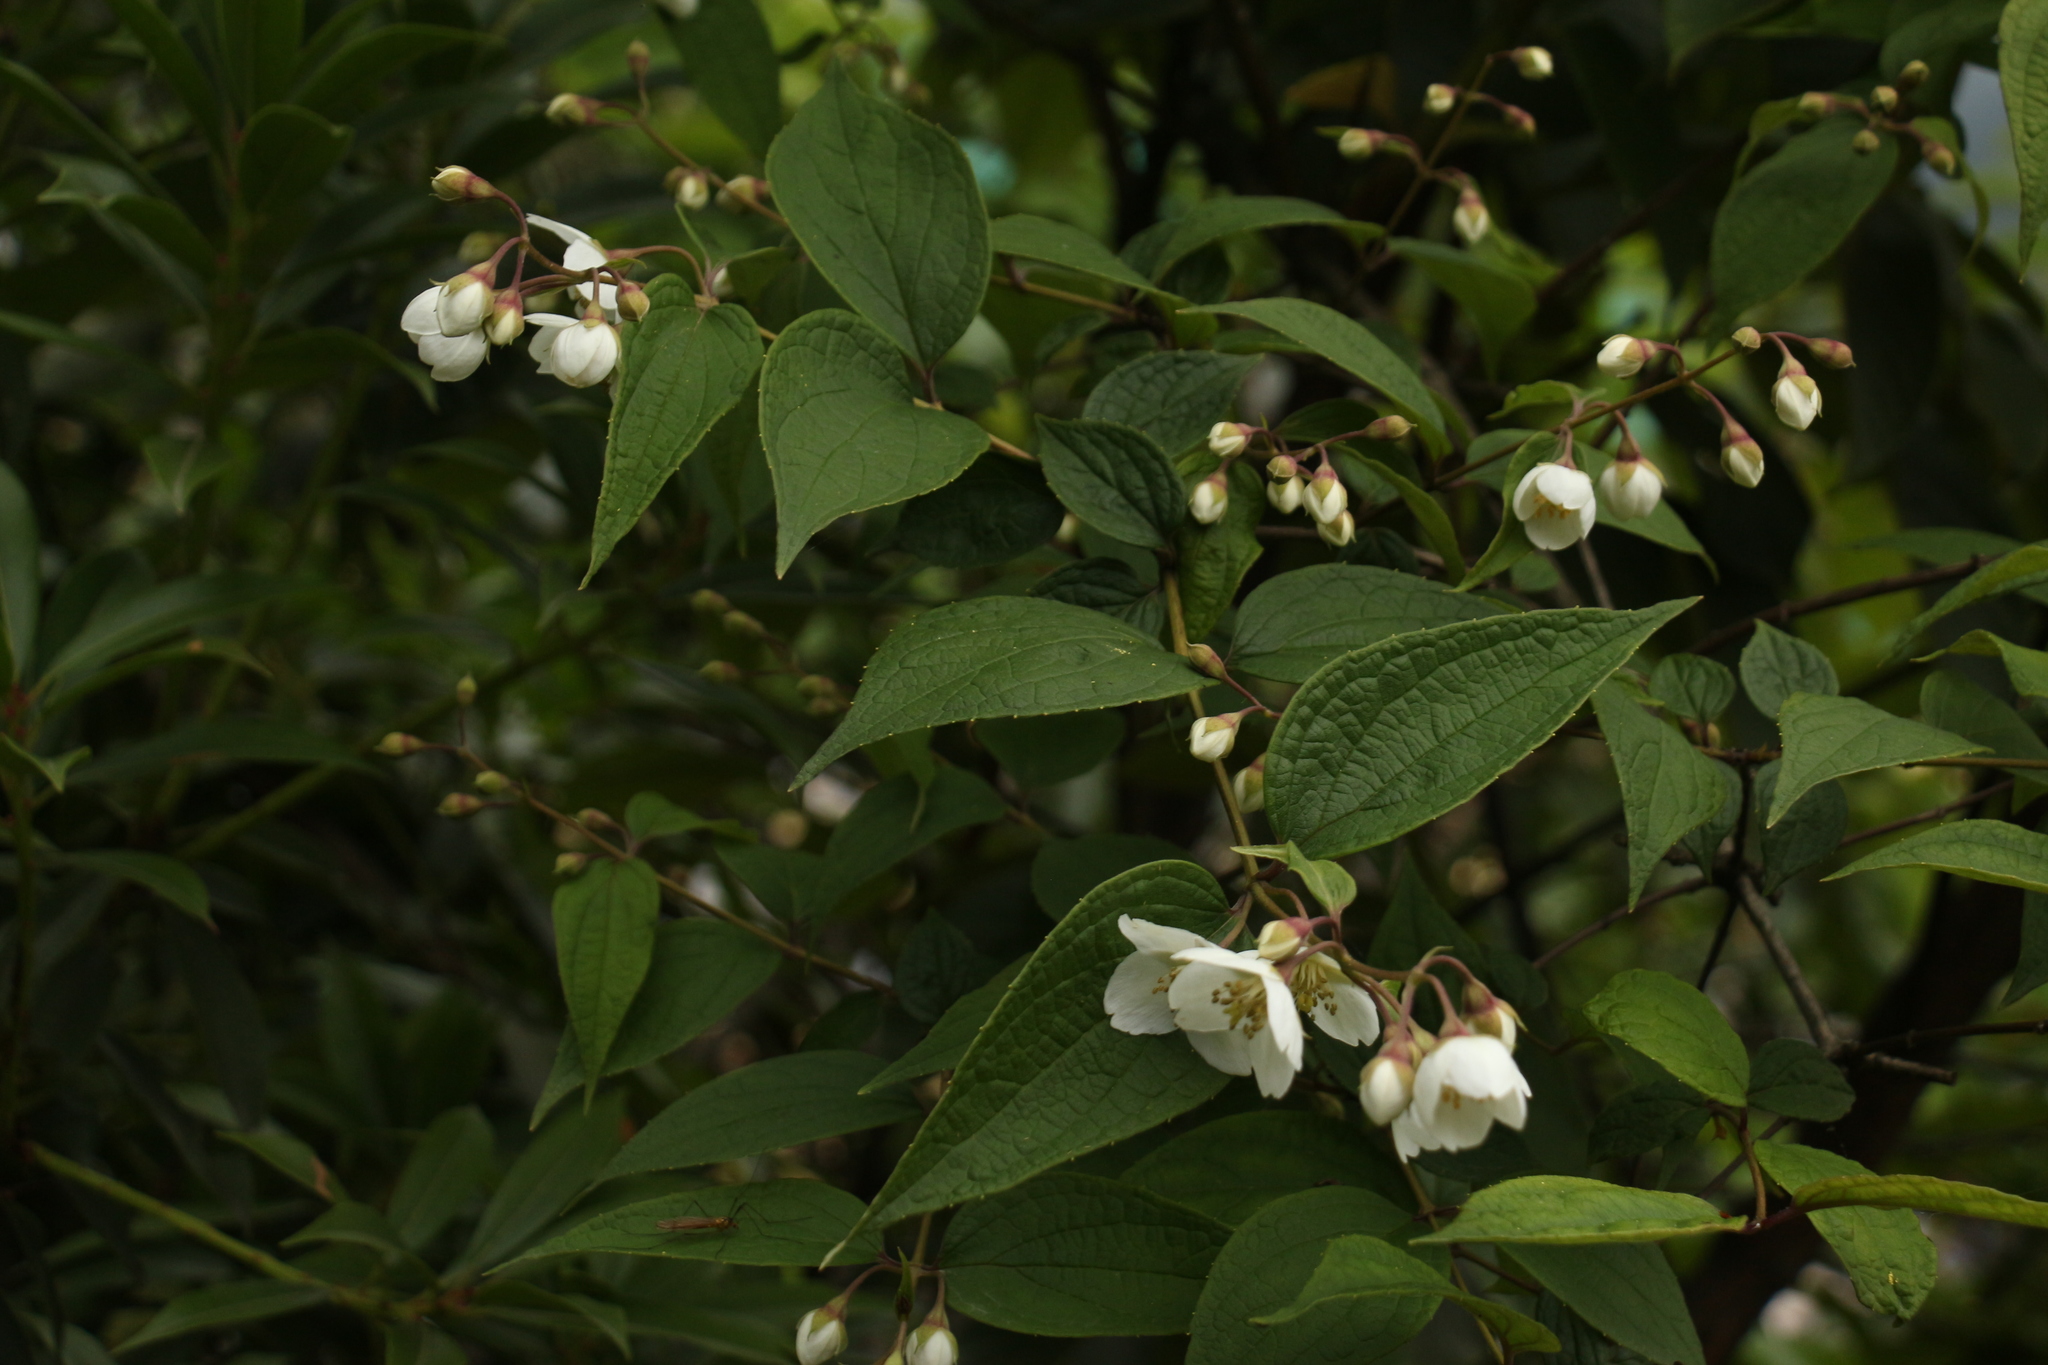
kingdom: Plantae
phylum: Tracheophyta
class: Magnoliopsida
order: Cornales
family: Hydrangeaceae
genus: Philadelphus
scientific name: Philadelphus tomentosus
